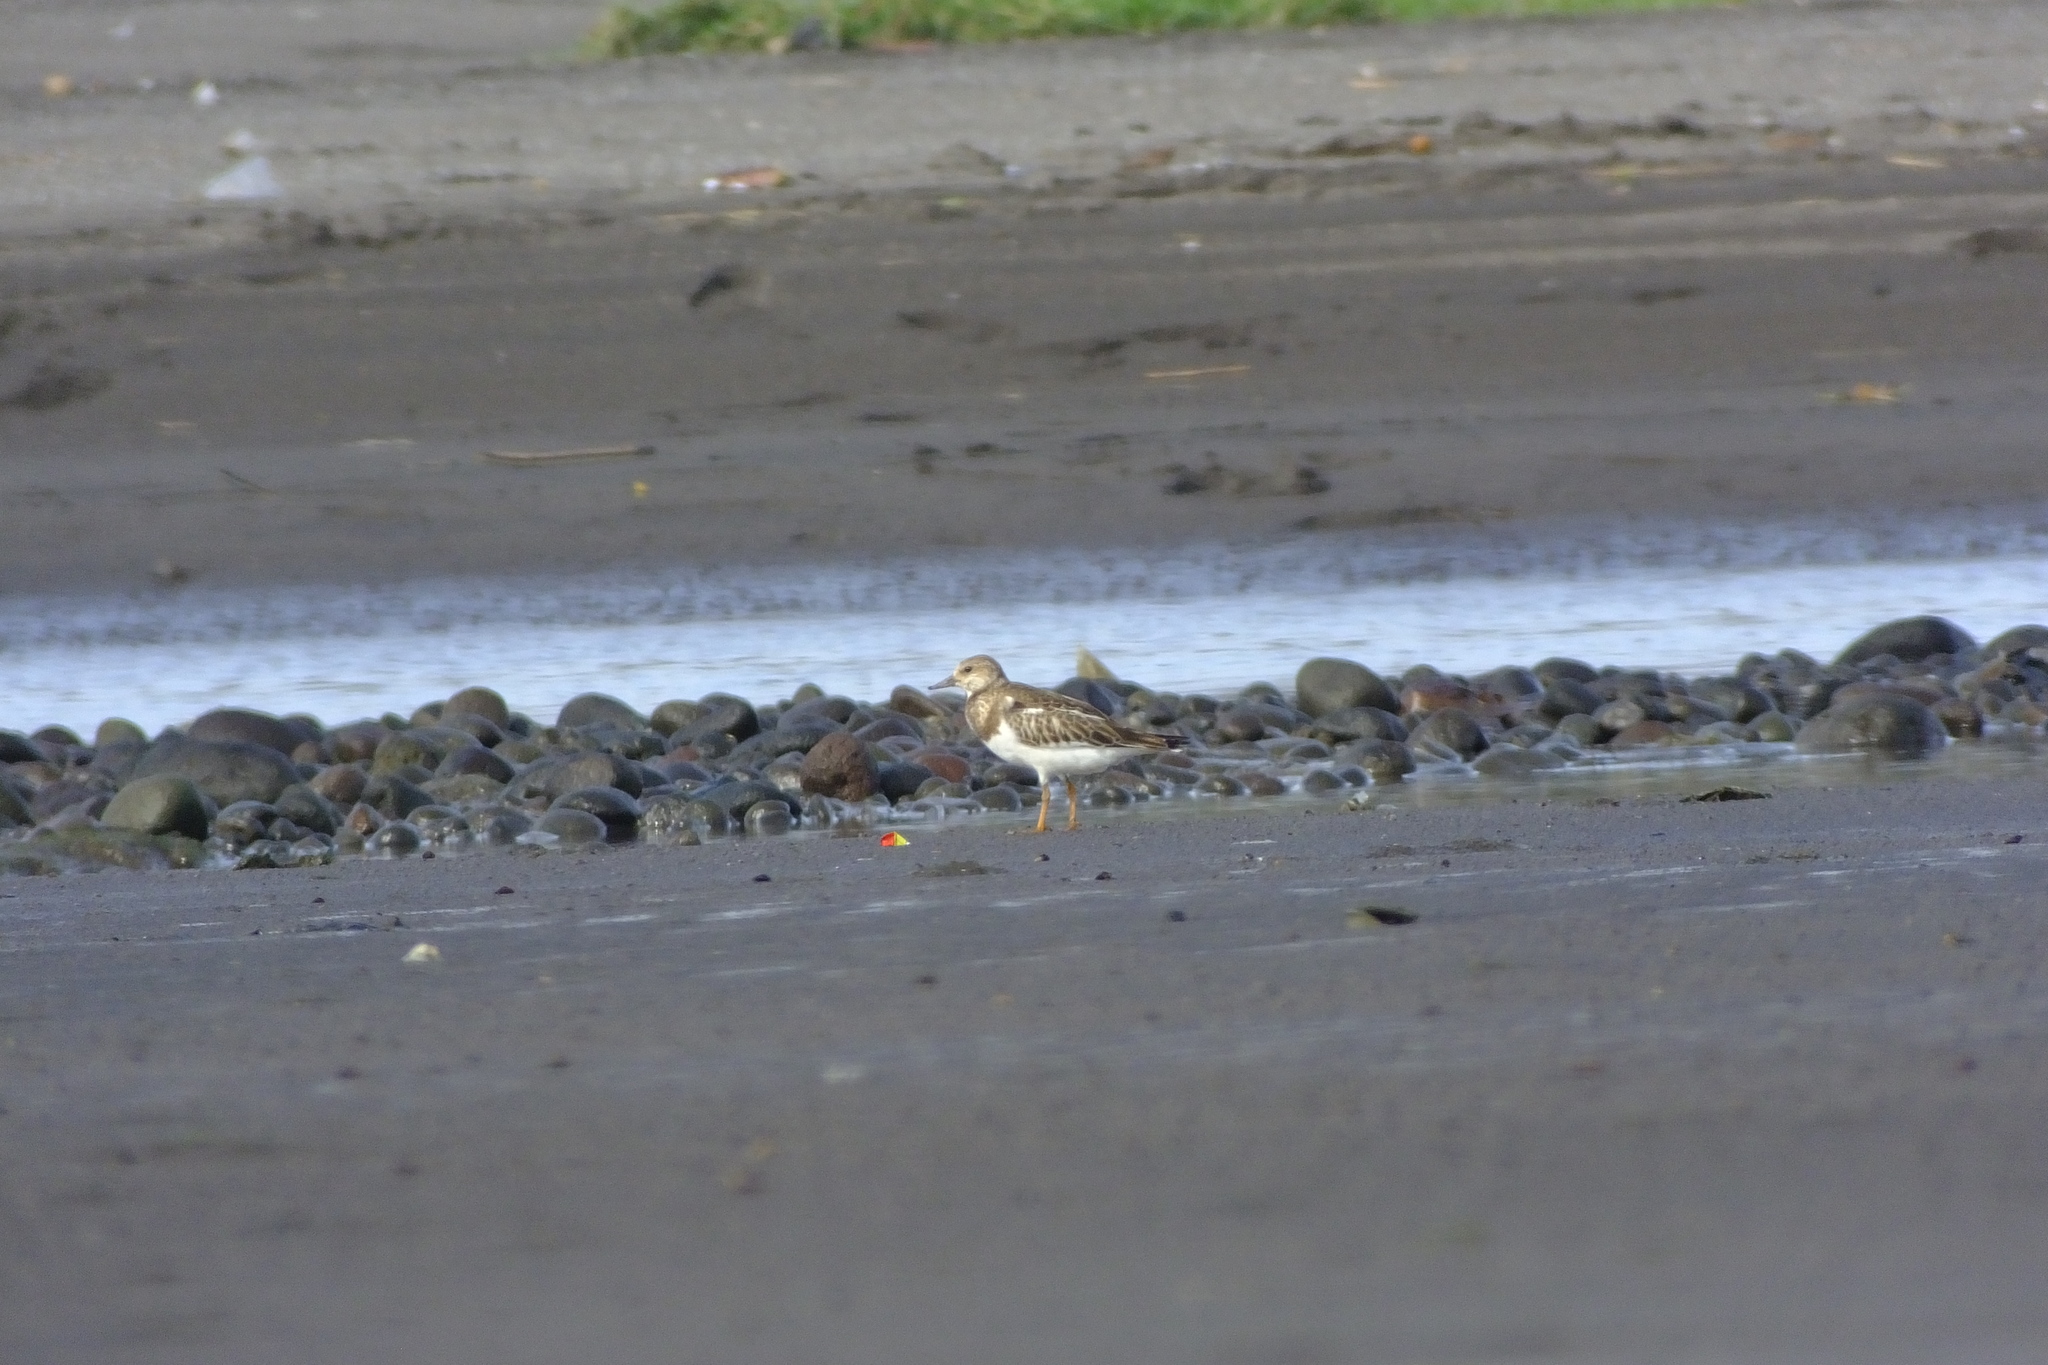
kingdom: Animalia
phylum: Chordata
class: Aves
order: Charadriiformes
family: Scolopacidae
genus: Arenaria
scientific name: Arenaria interpres
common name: Ruddy turnstone
